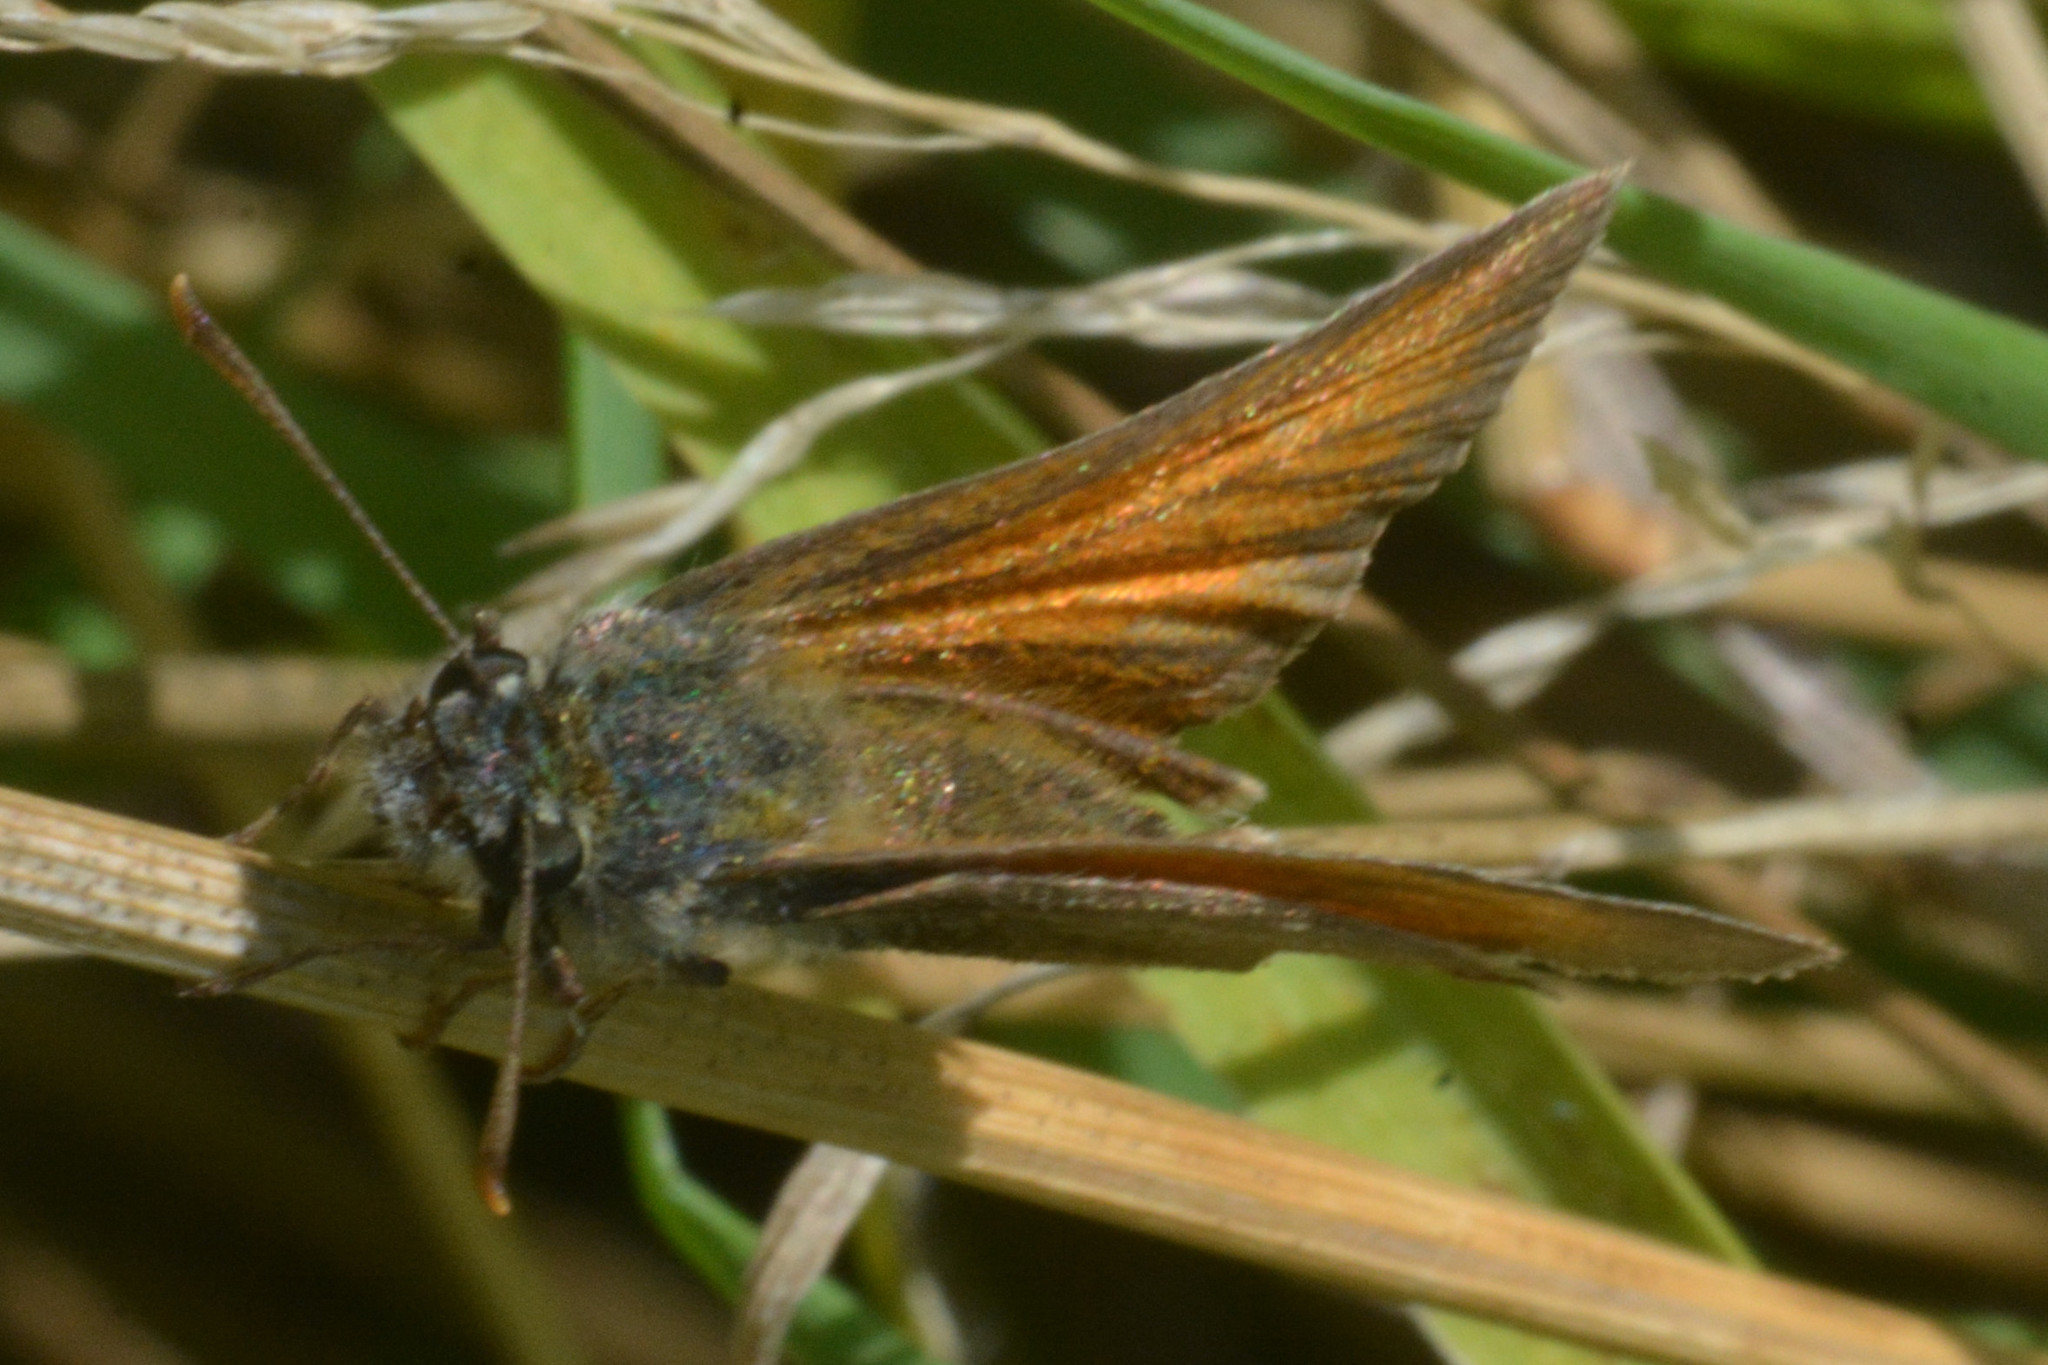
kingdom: Animalia
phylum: Arthropoda
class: Insecta
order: Lepidoptera
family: Hesperiidae
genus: Thymelicus
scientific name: Thymelicus sylvestris
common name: Small skipper
